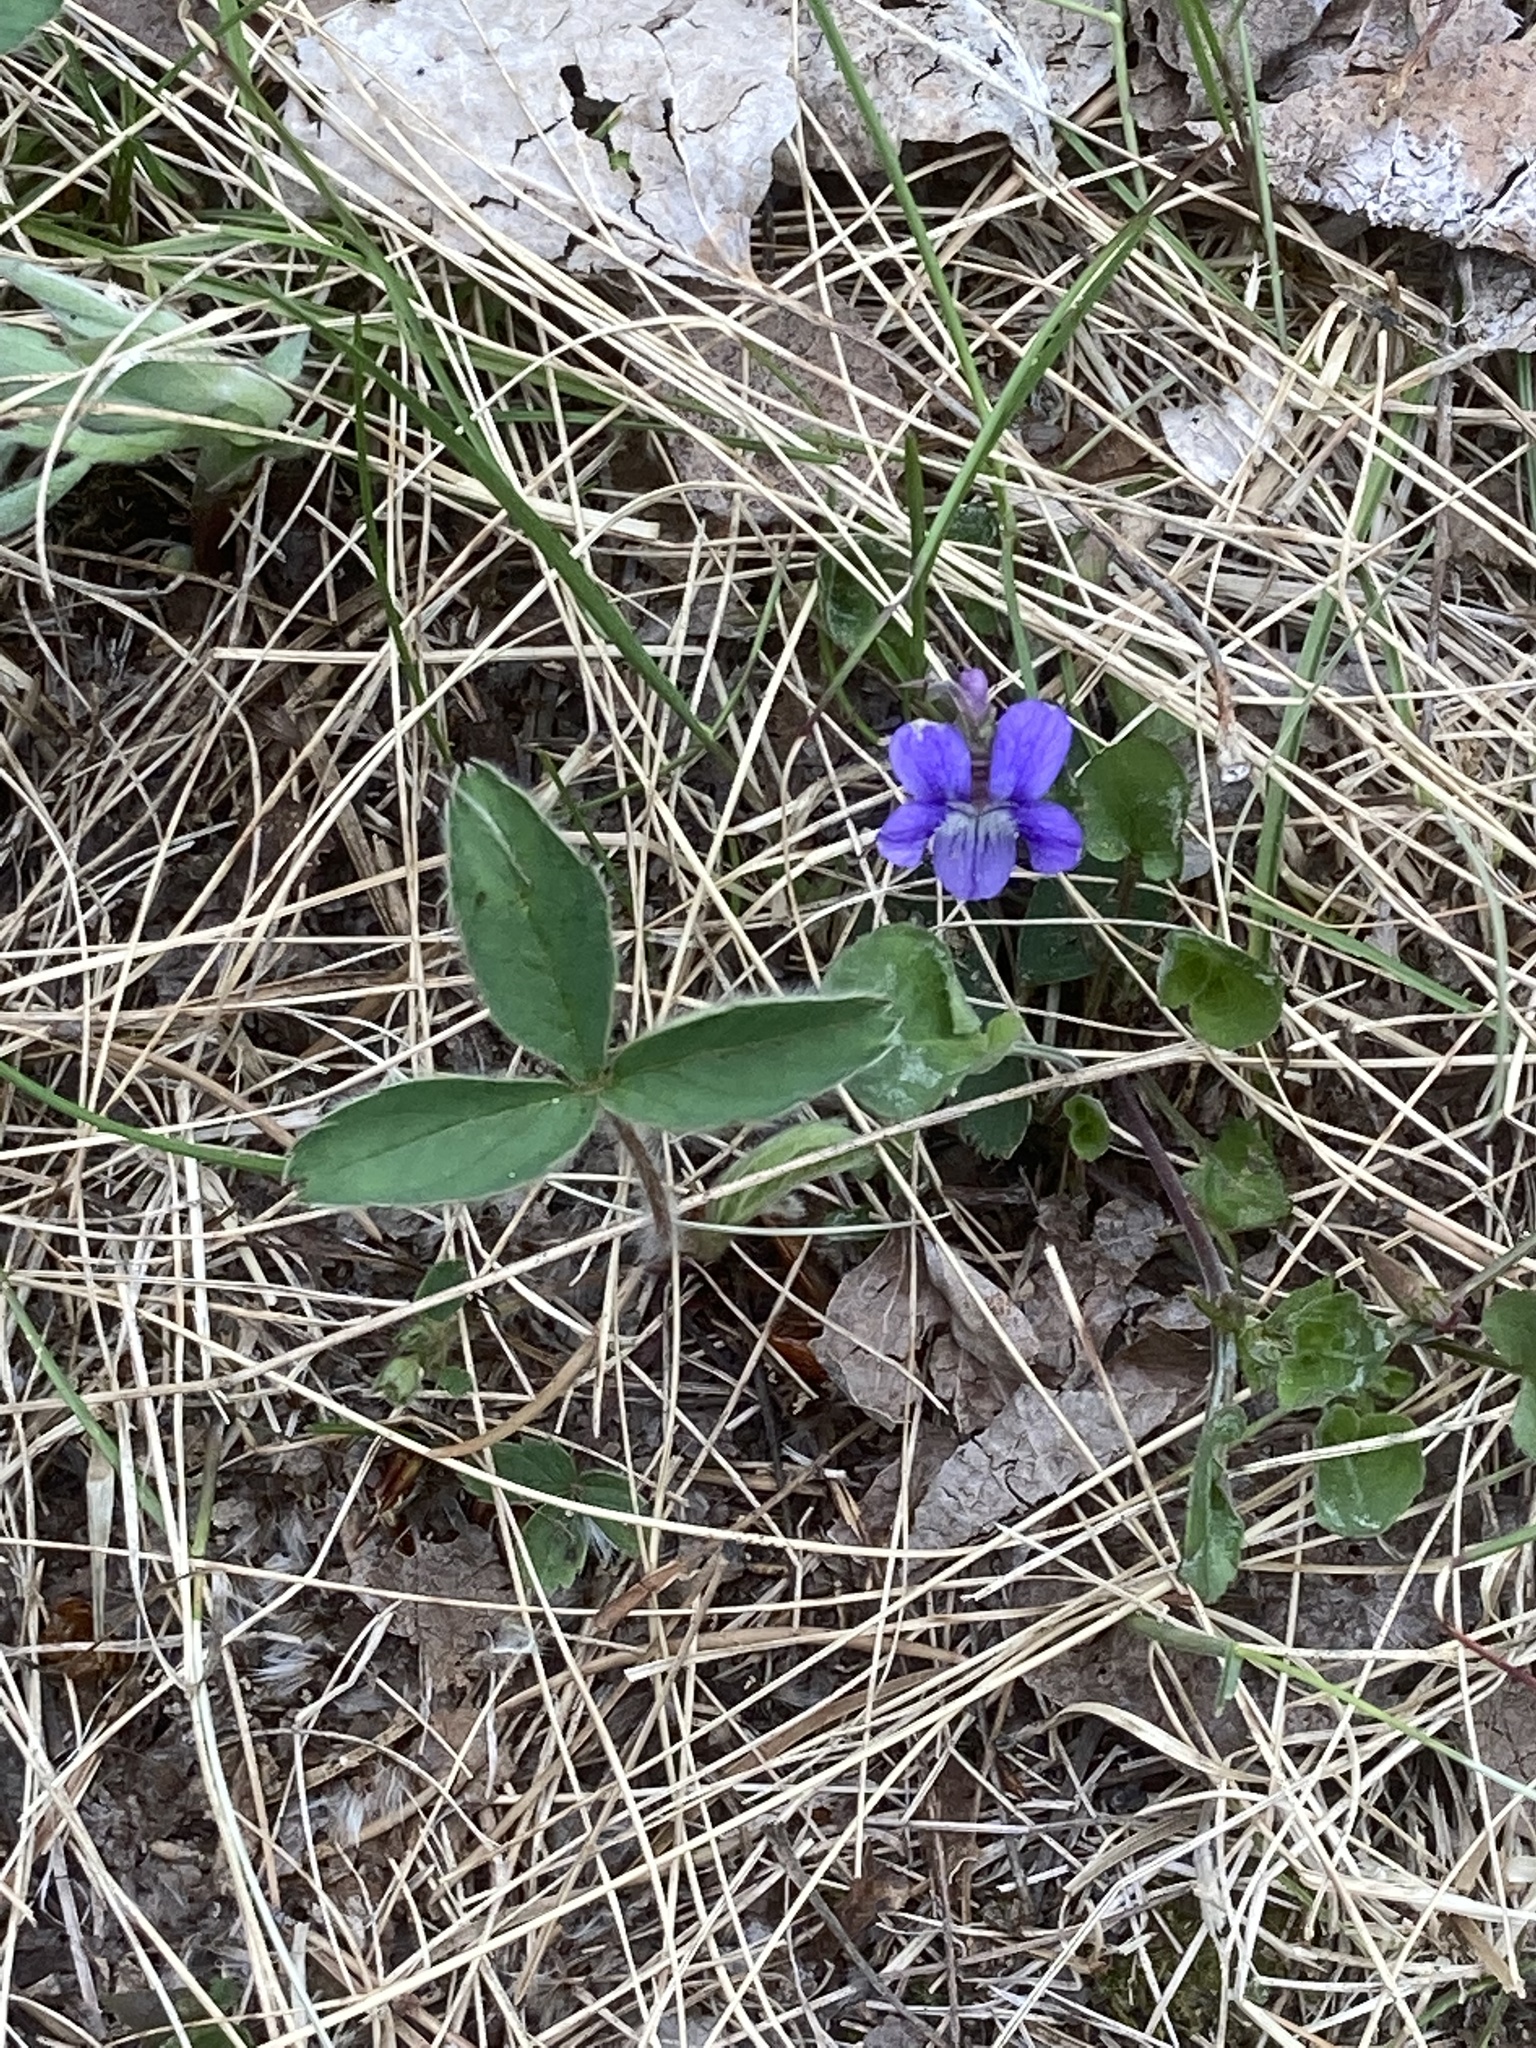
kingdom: Plantae
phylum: Tracheophyta
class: Magnoliopsida
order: Malpighiales
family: Violaceae
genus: Viola
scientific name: Viola adunca
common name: Sand violet
